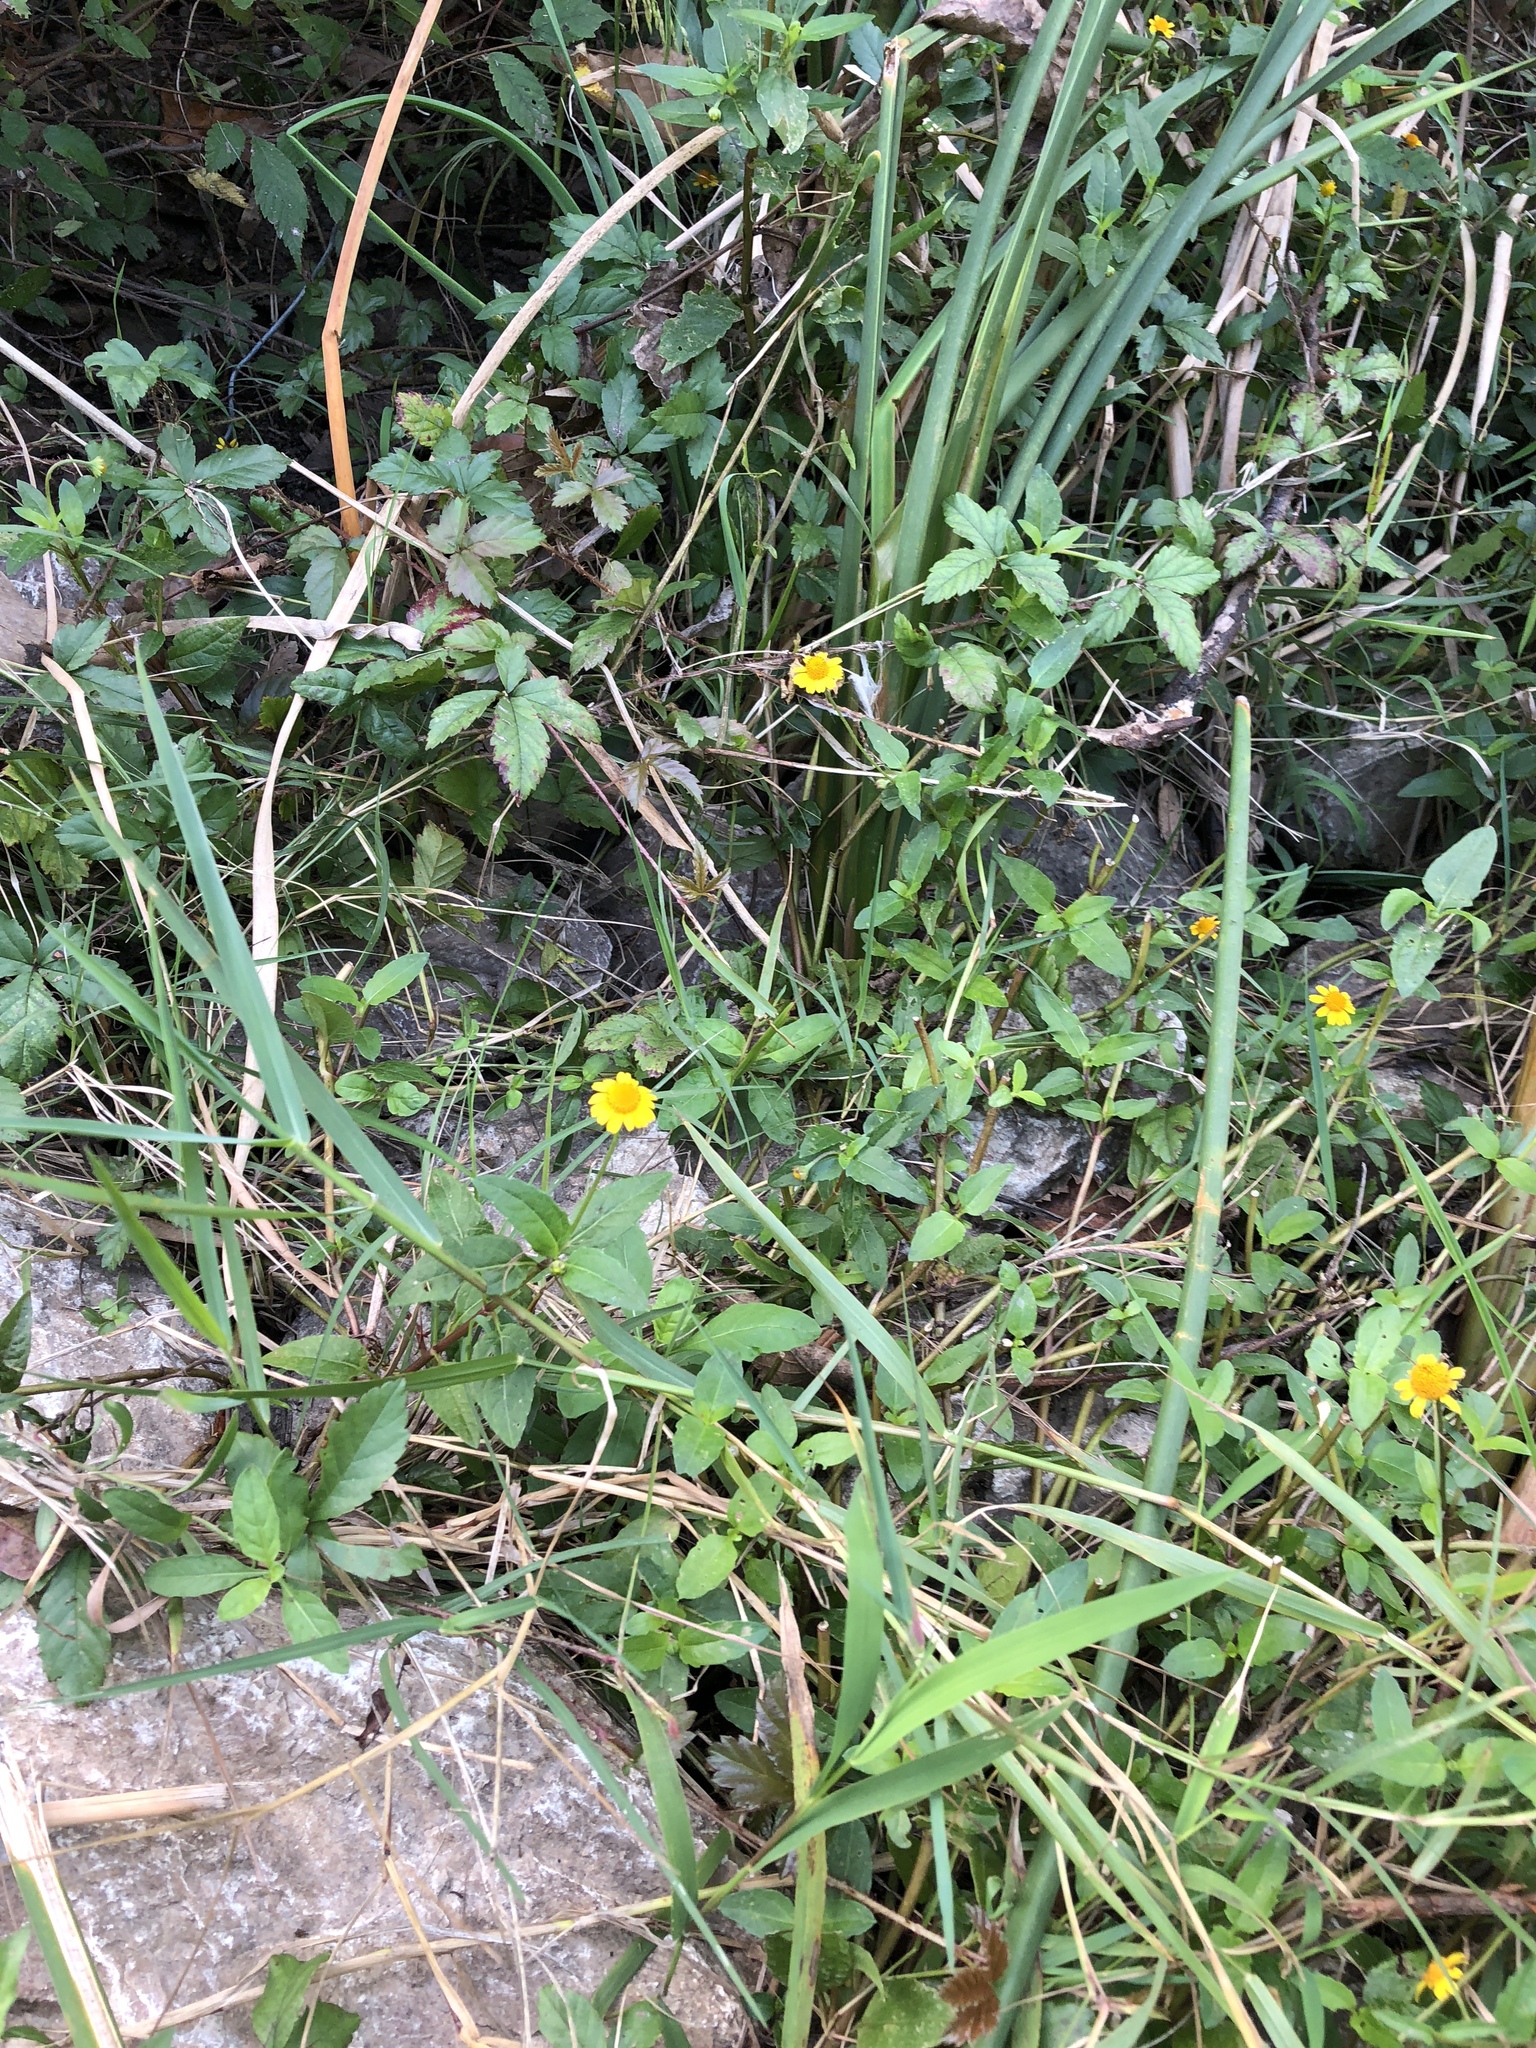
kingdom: Plantae
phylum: Tracheophyta
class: Magnoliopsida
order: Asterales
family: Asteraceae
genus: Acmella
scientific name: Acmella repens
